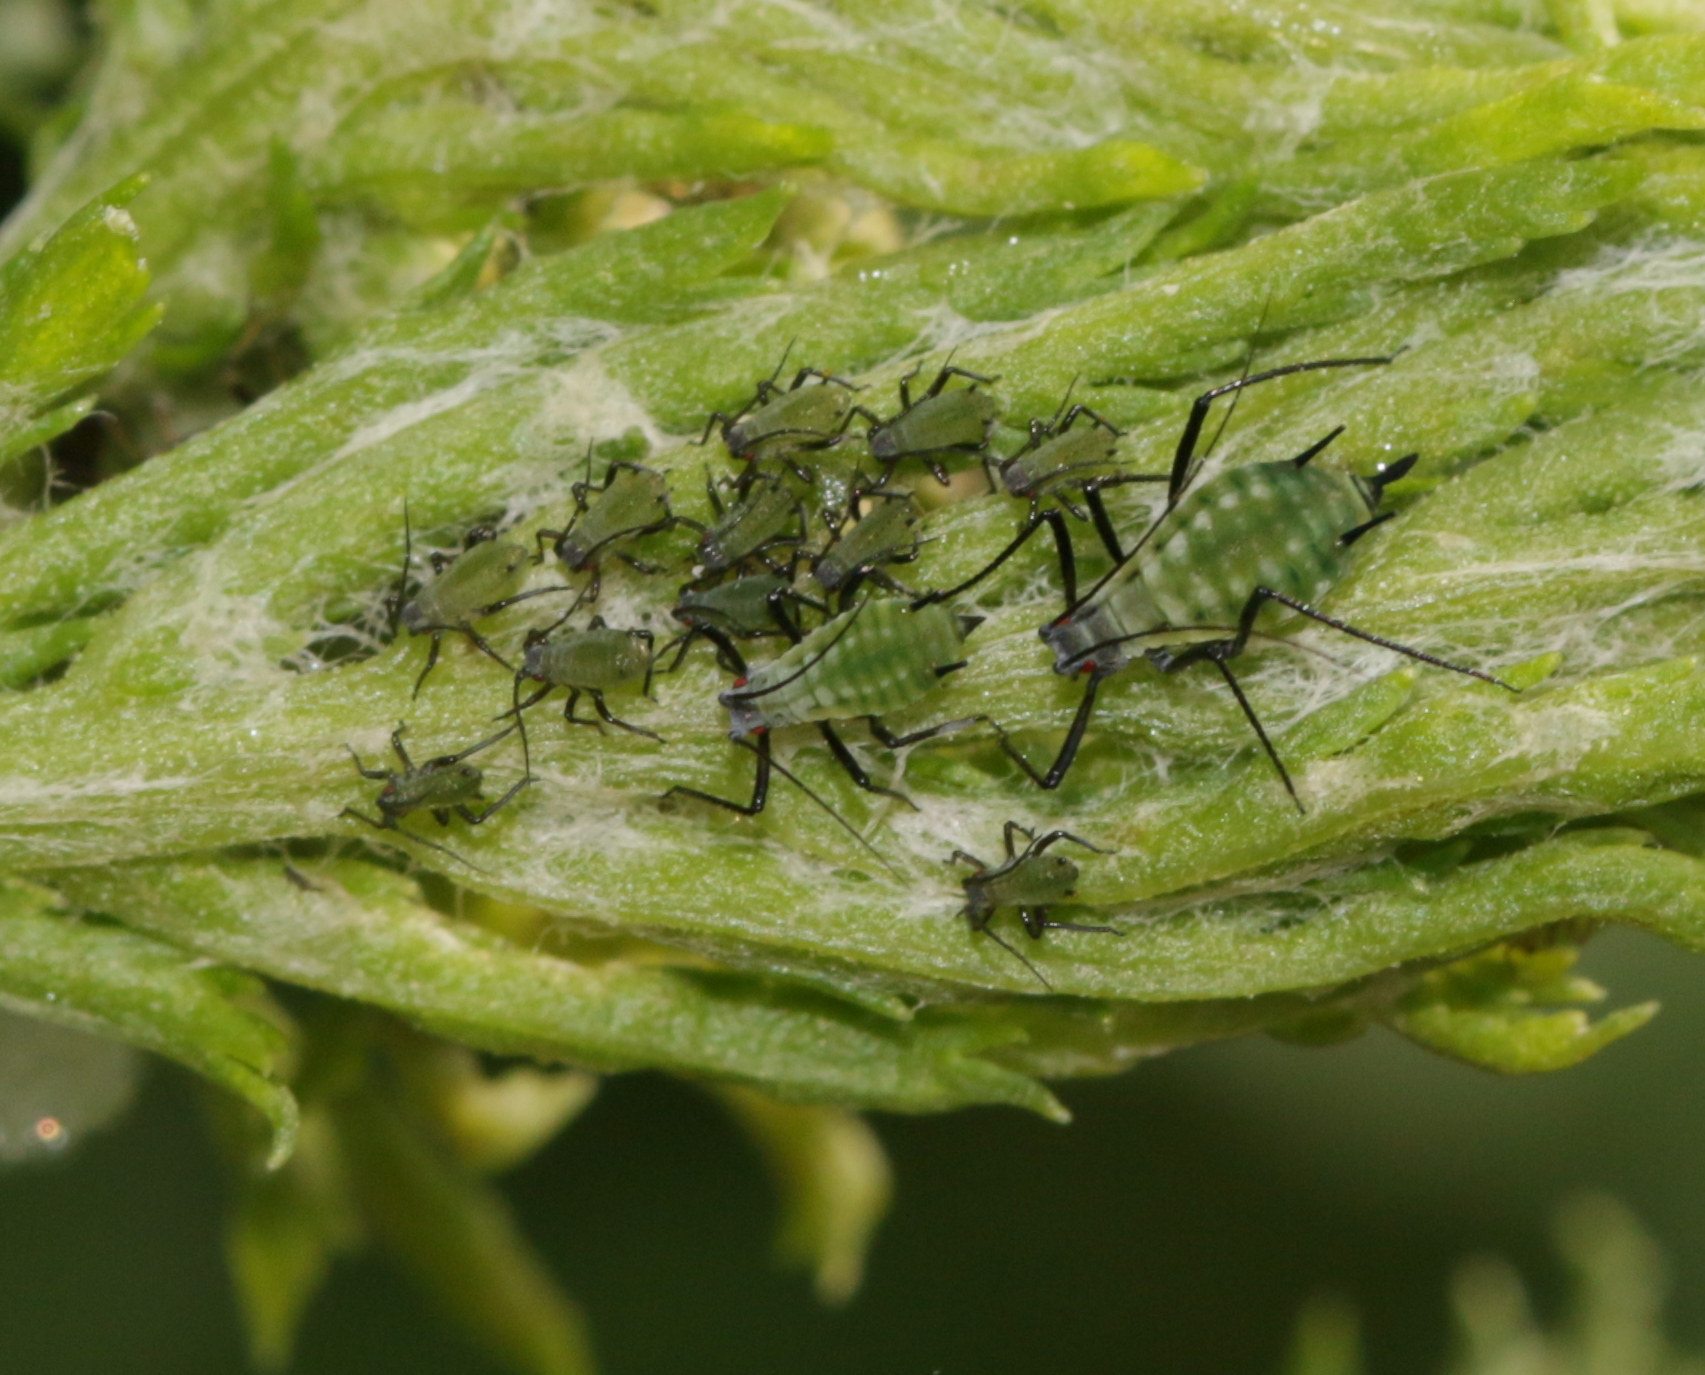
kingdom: Animalia
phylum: Arthropoda
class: Insecta
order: Hemiptera
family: Aphididae
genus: Macrosiphoniella
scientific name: Macrosiphoniella tanacetaria
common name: Aphid
